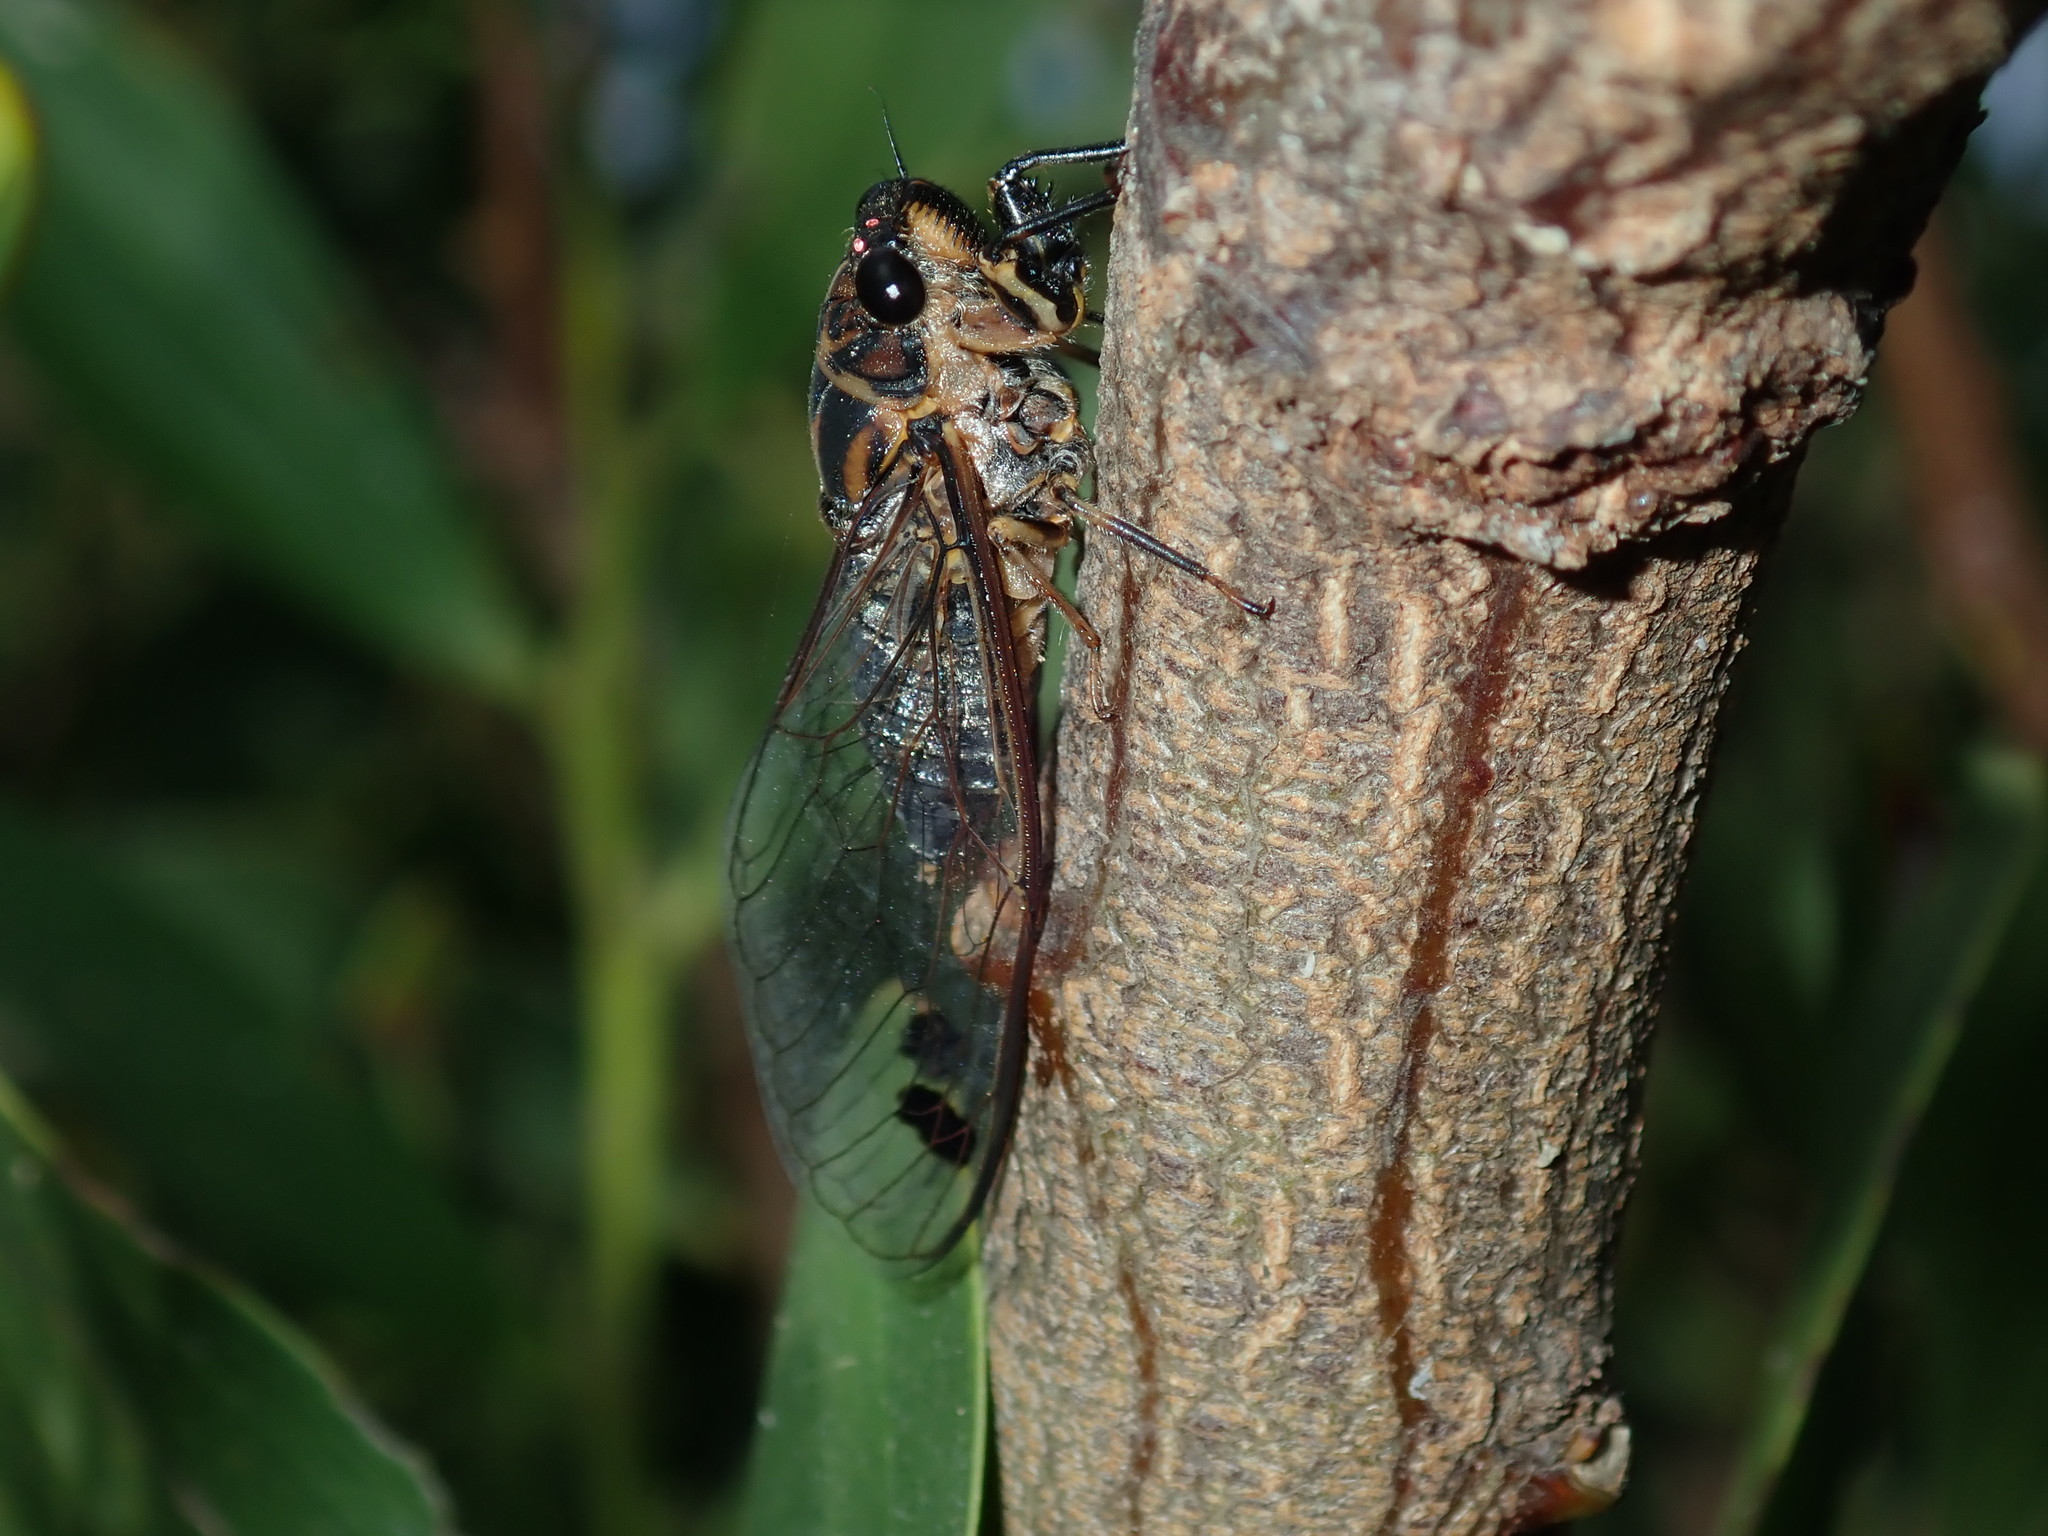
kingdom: Animalia
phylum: Arthropoda
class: Insecta
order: Hemiptera
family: Cicadidae
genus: Galanga
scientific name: Galanga labeculata
